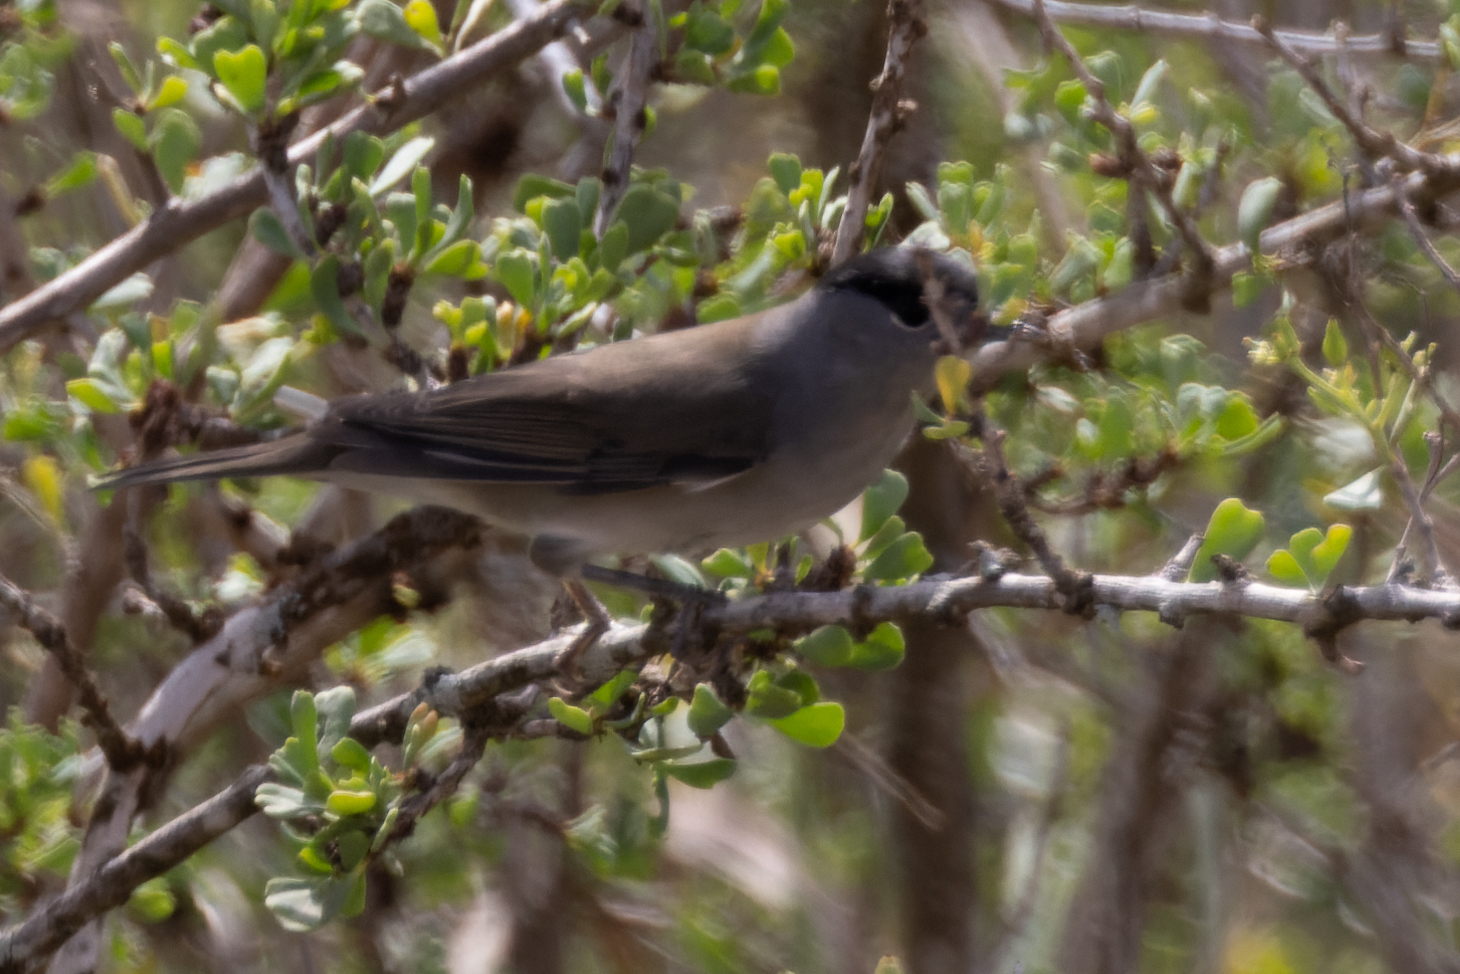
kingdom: Animalia
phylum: Chordata
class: Aves
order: Passeriformes
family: Sylviidae
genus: Sylvia
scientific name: Sylvia atricapilla
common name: Eurasian blackcap
